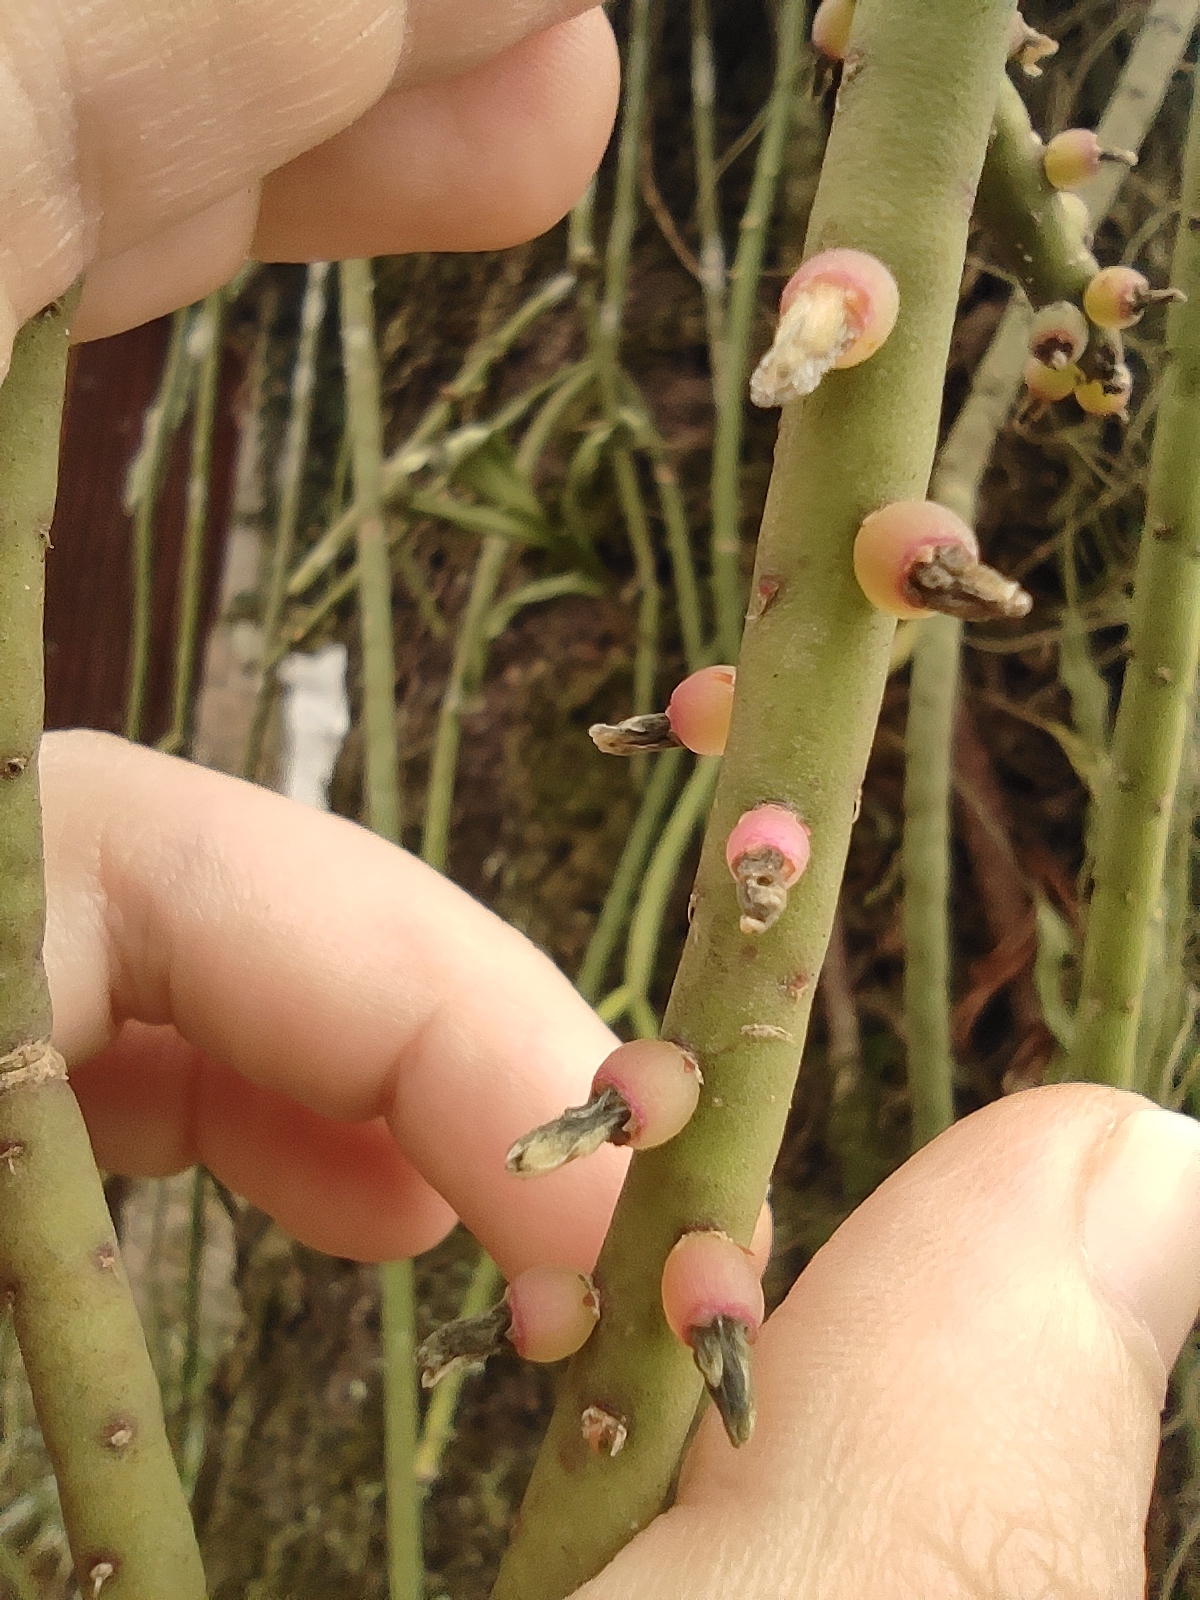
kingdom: Plantae
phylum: Tracheophyta
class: Magnoliopsida
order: Caryophyllales
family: Cactaceae
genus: Rhipsalis
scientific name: Rhipsalis lindbergiana
